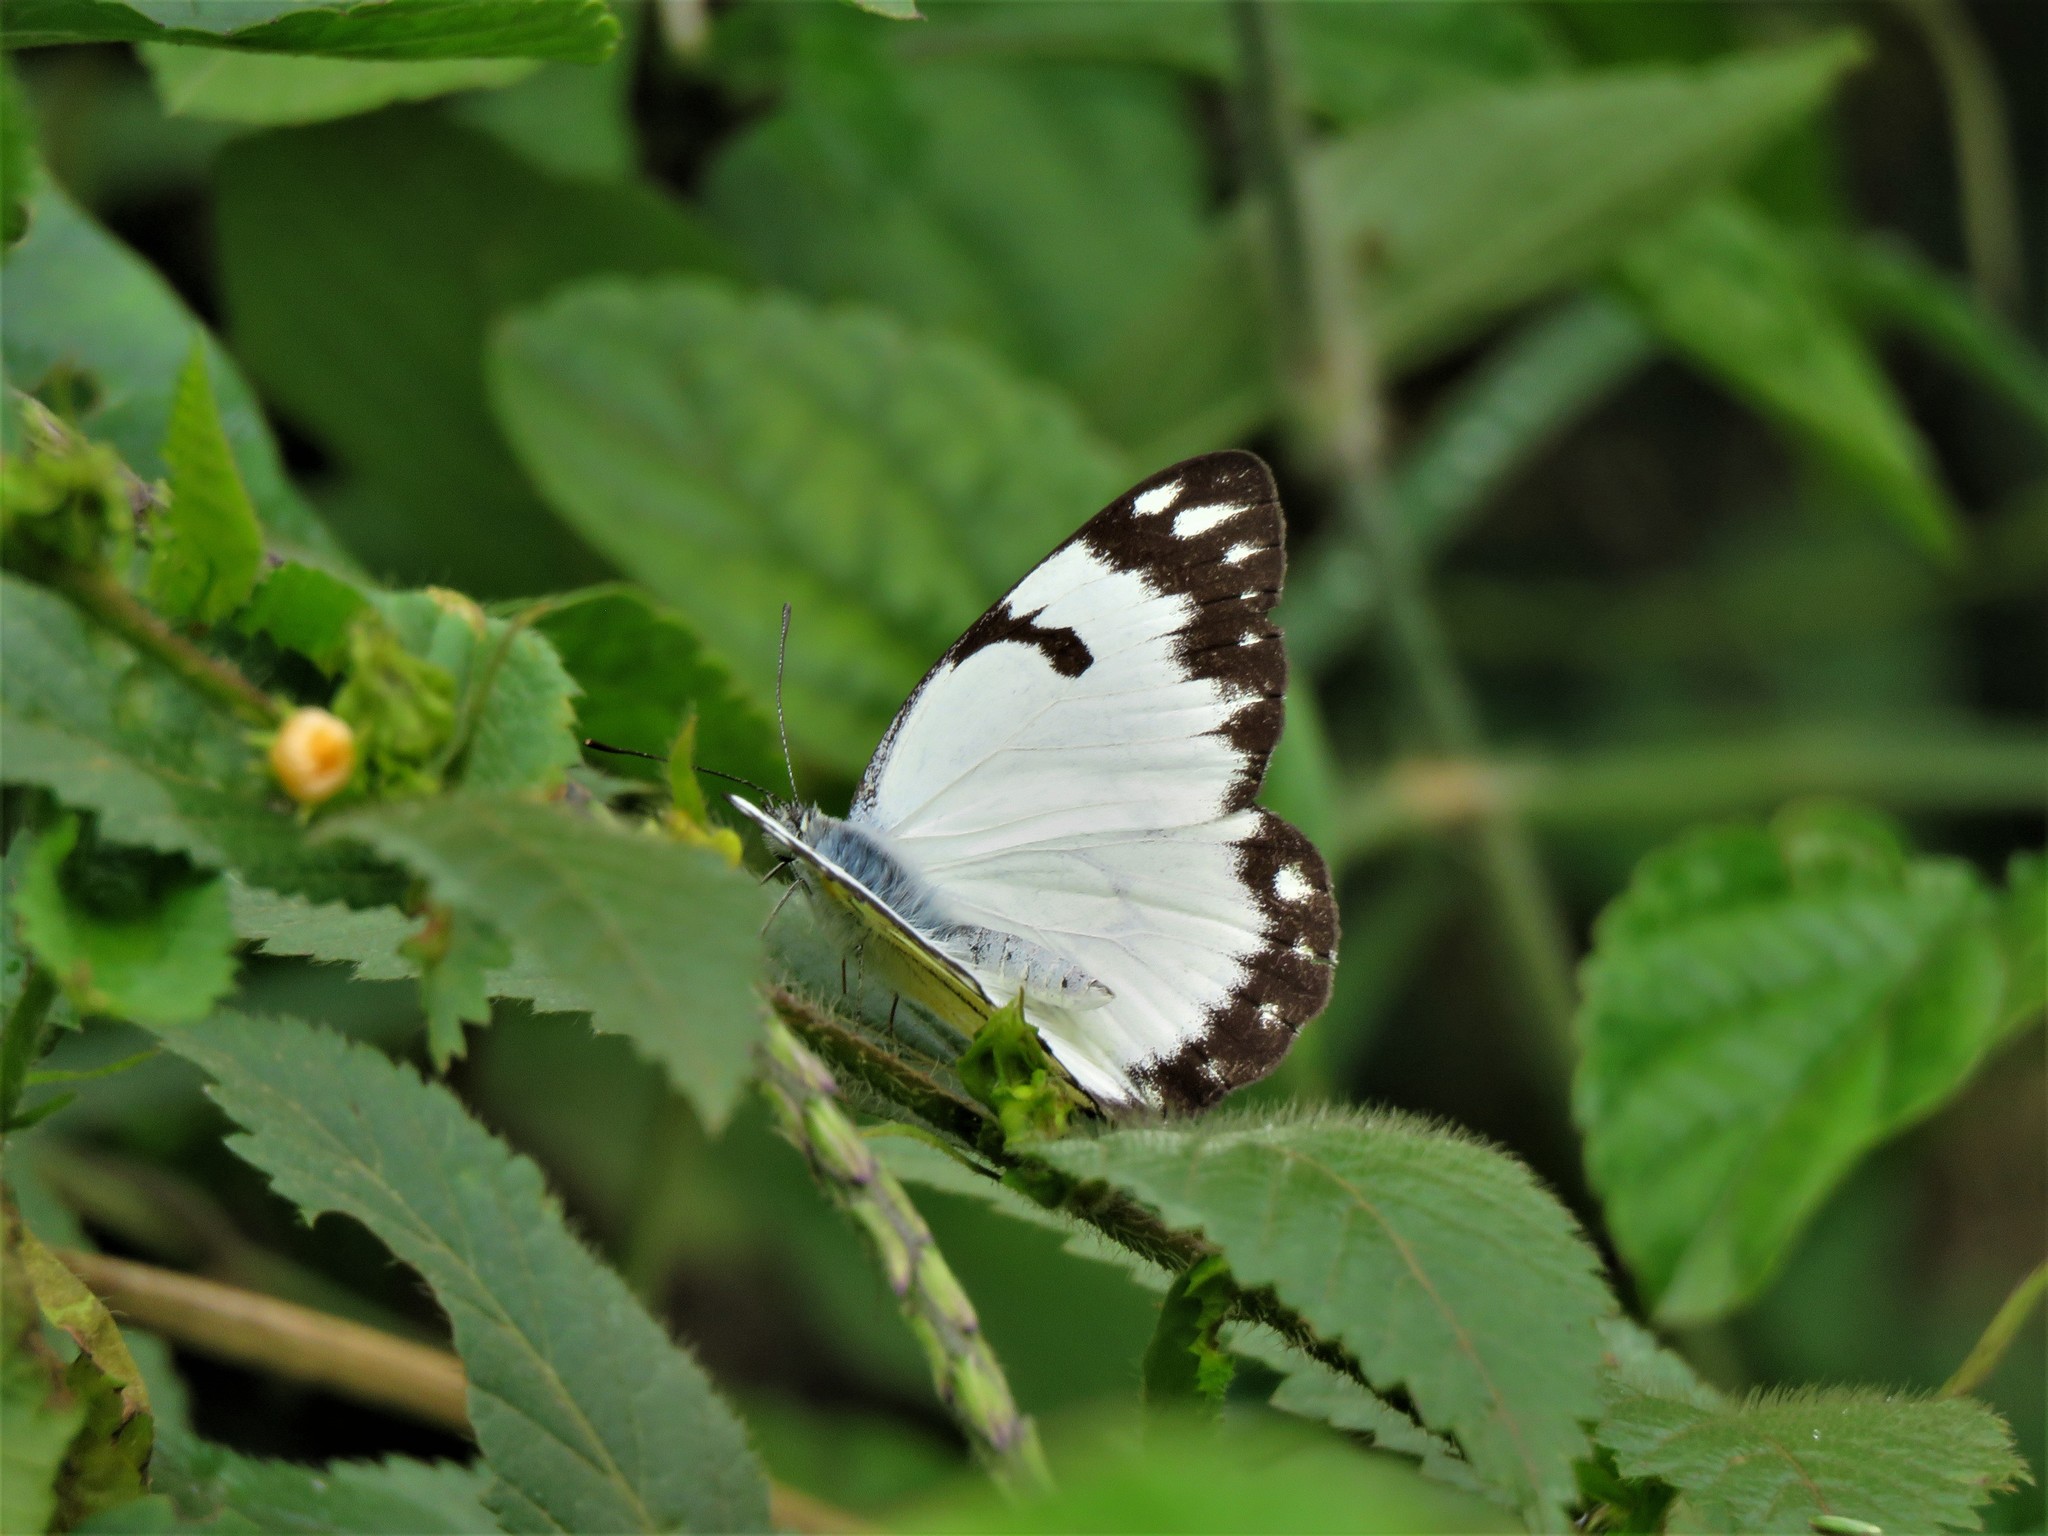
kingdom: Animalia
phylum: Arthropoda
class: Insecta
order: Lepidoptera
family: Pieridae
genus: Belenois
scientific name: Belenois creona
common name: African caper white
